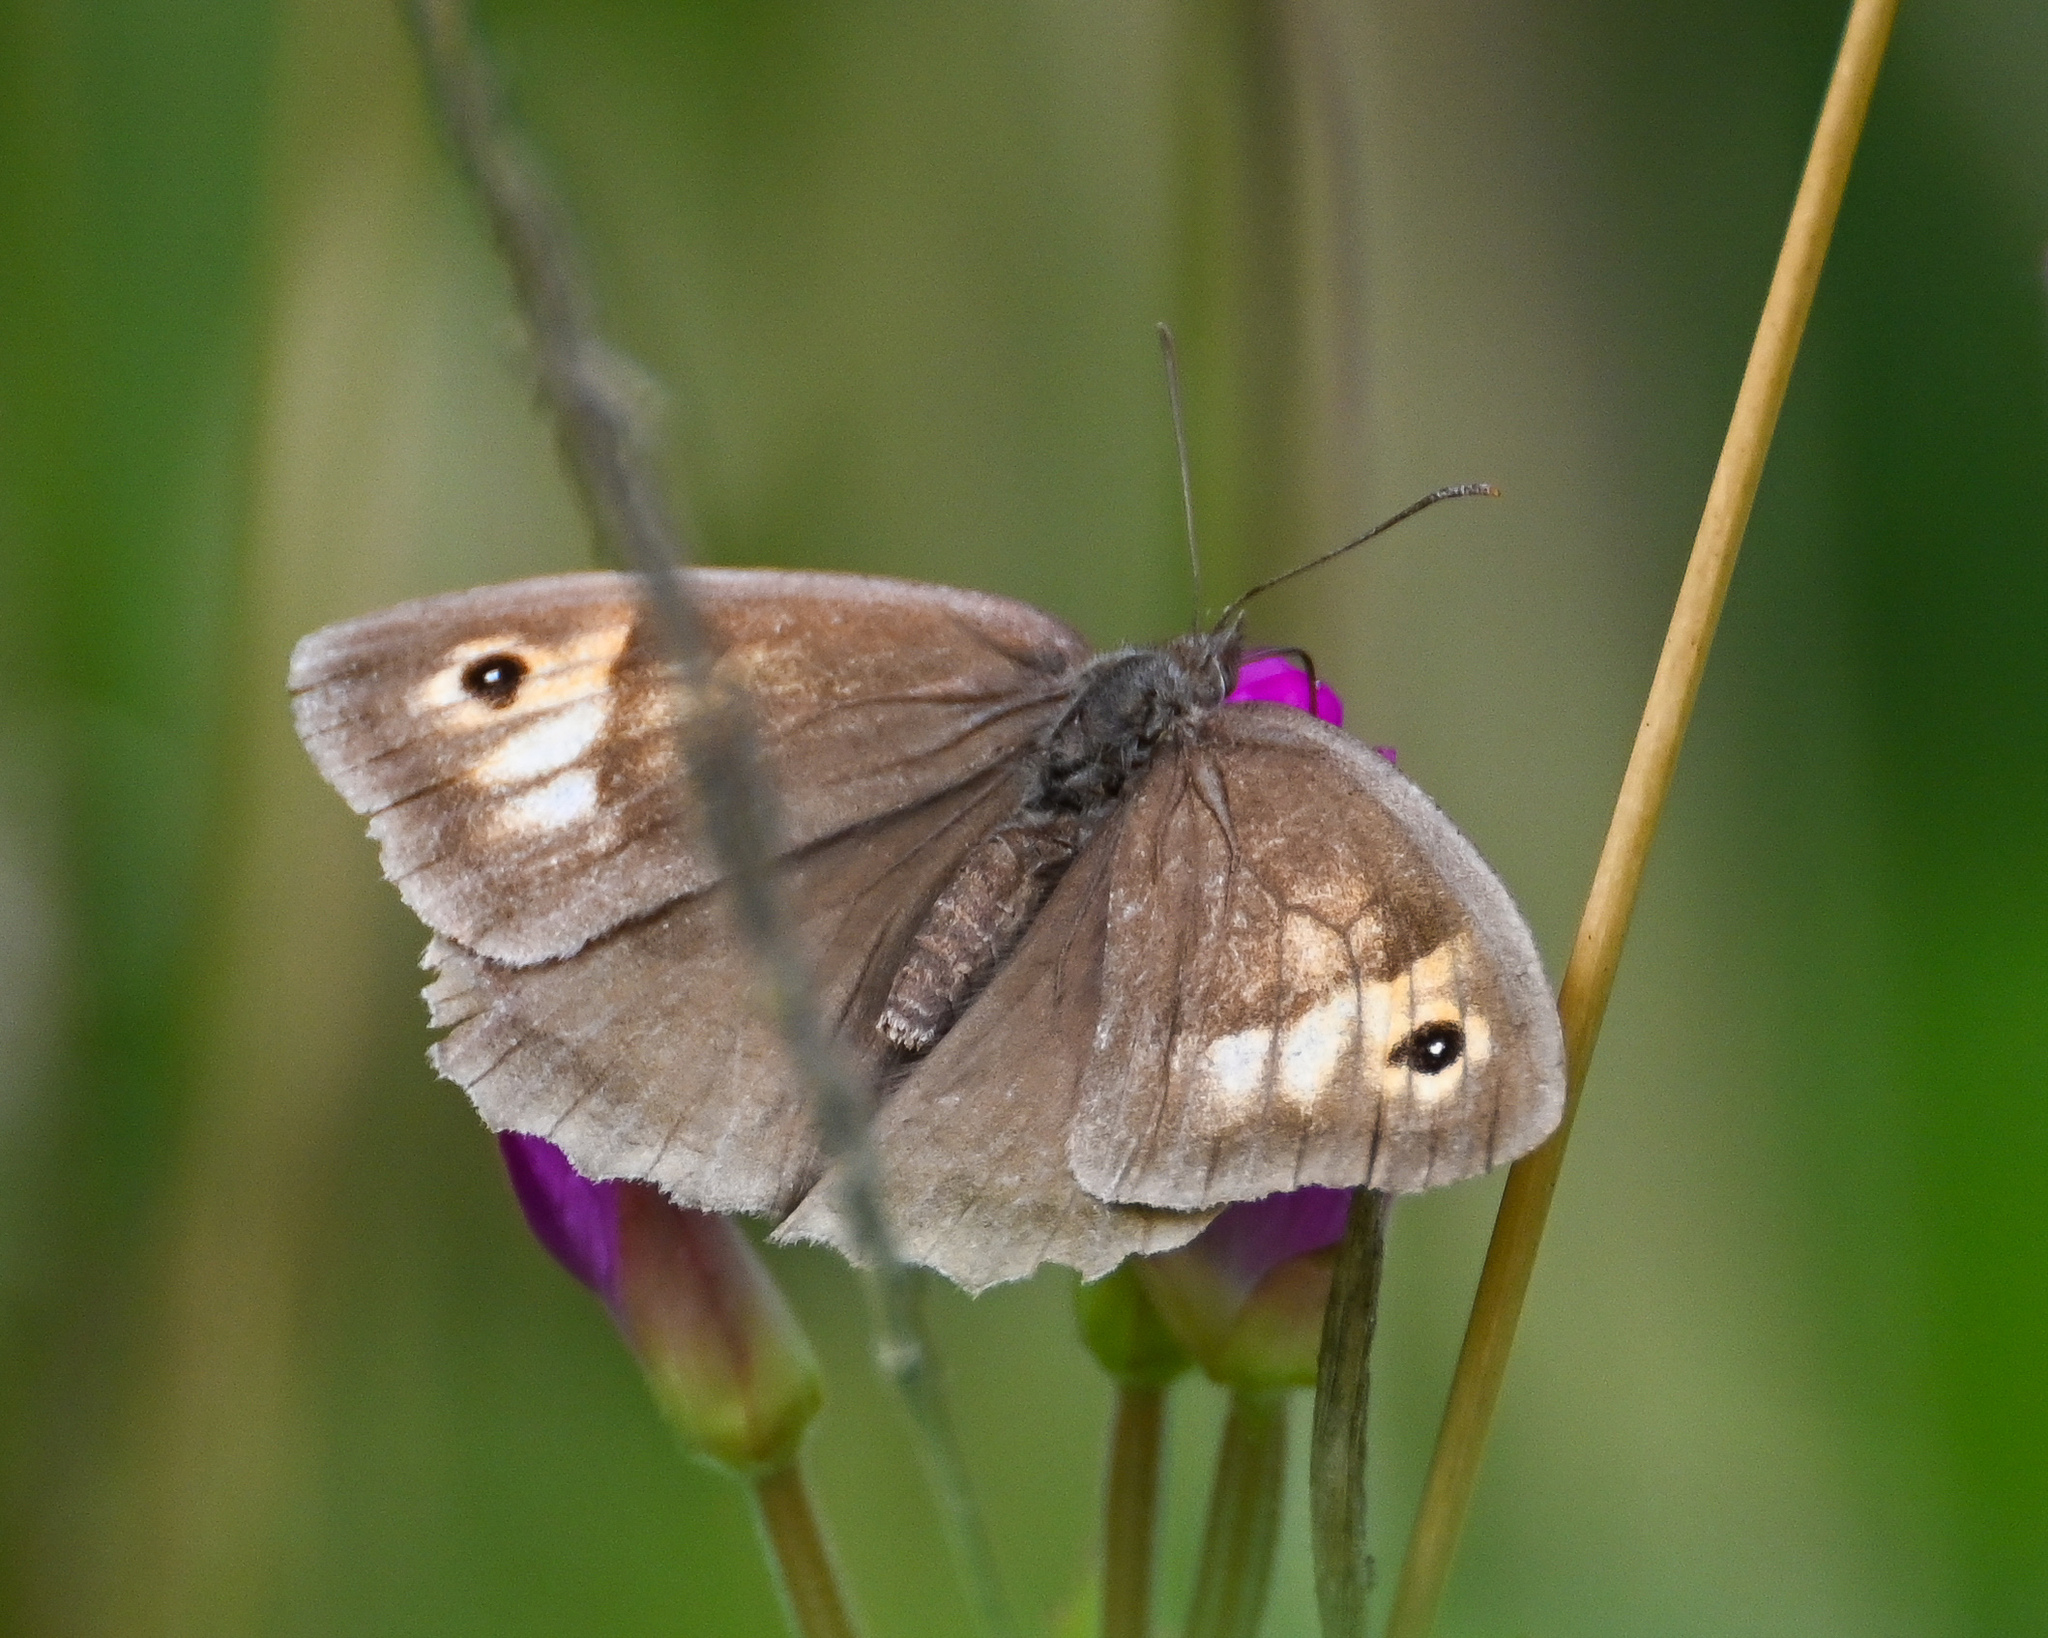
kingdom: Animalia
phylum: Arthropoda
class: Insecta
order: Lepidoptera
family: Nymphalidae
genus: Maniola
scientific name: Maniola jurtina
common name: Meadow brown
